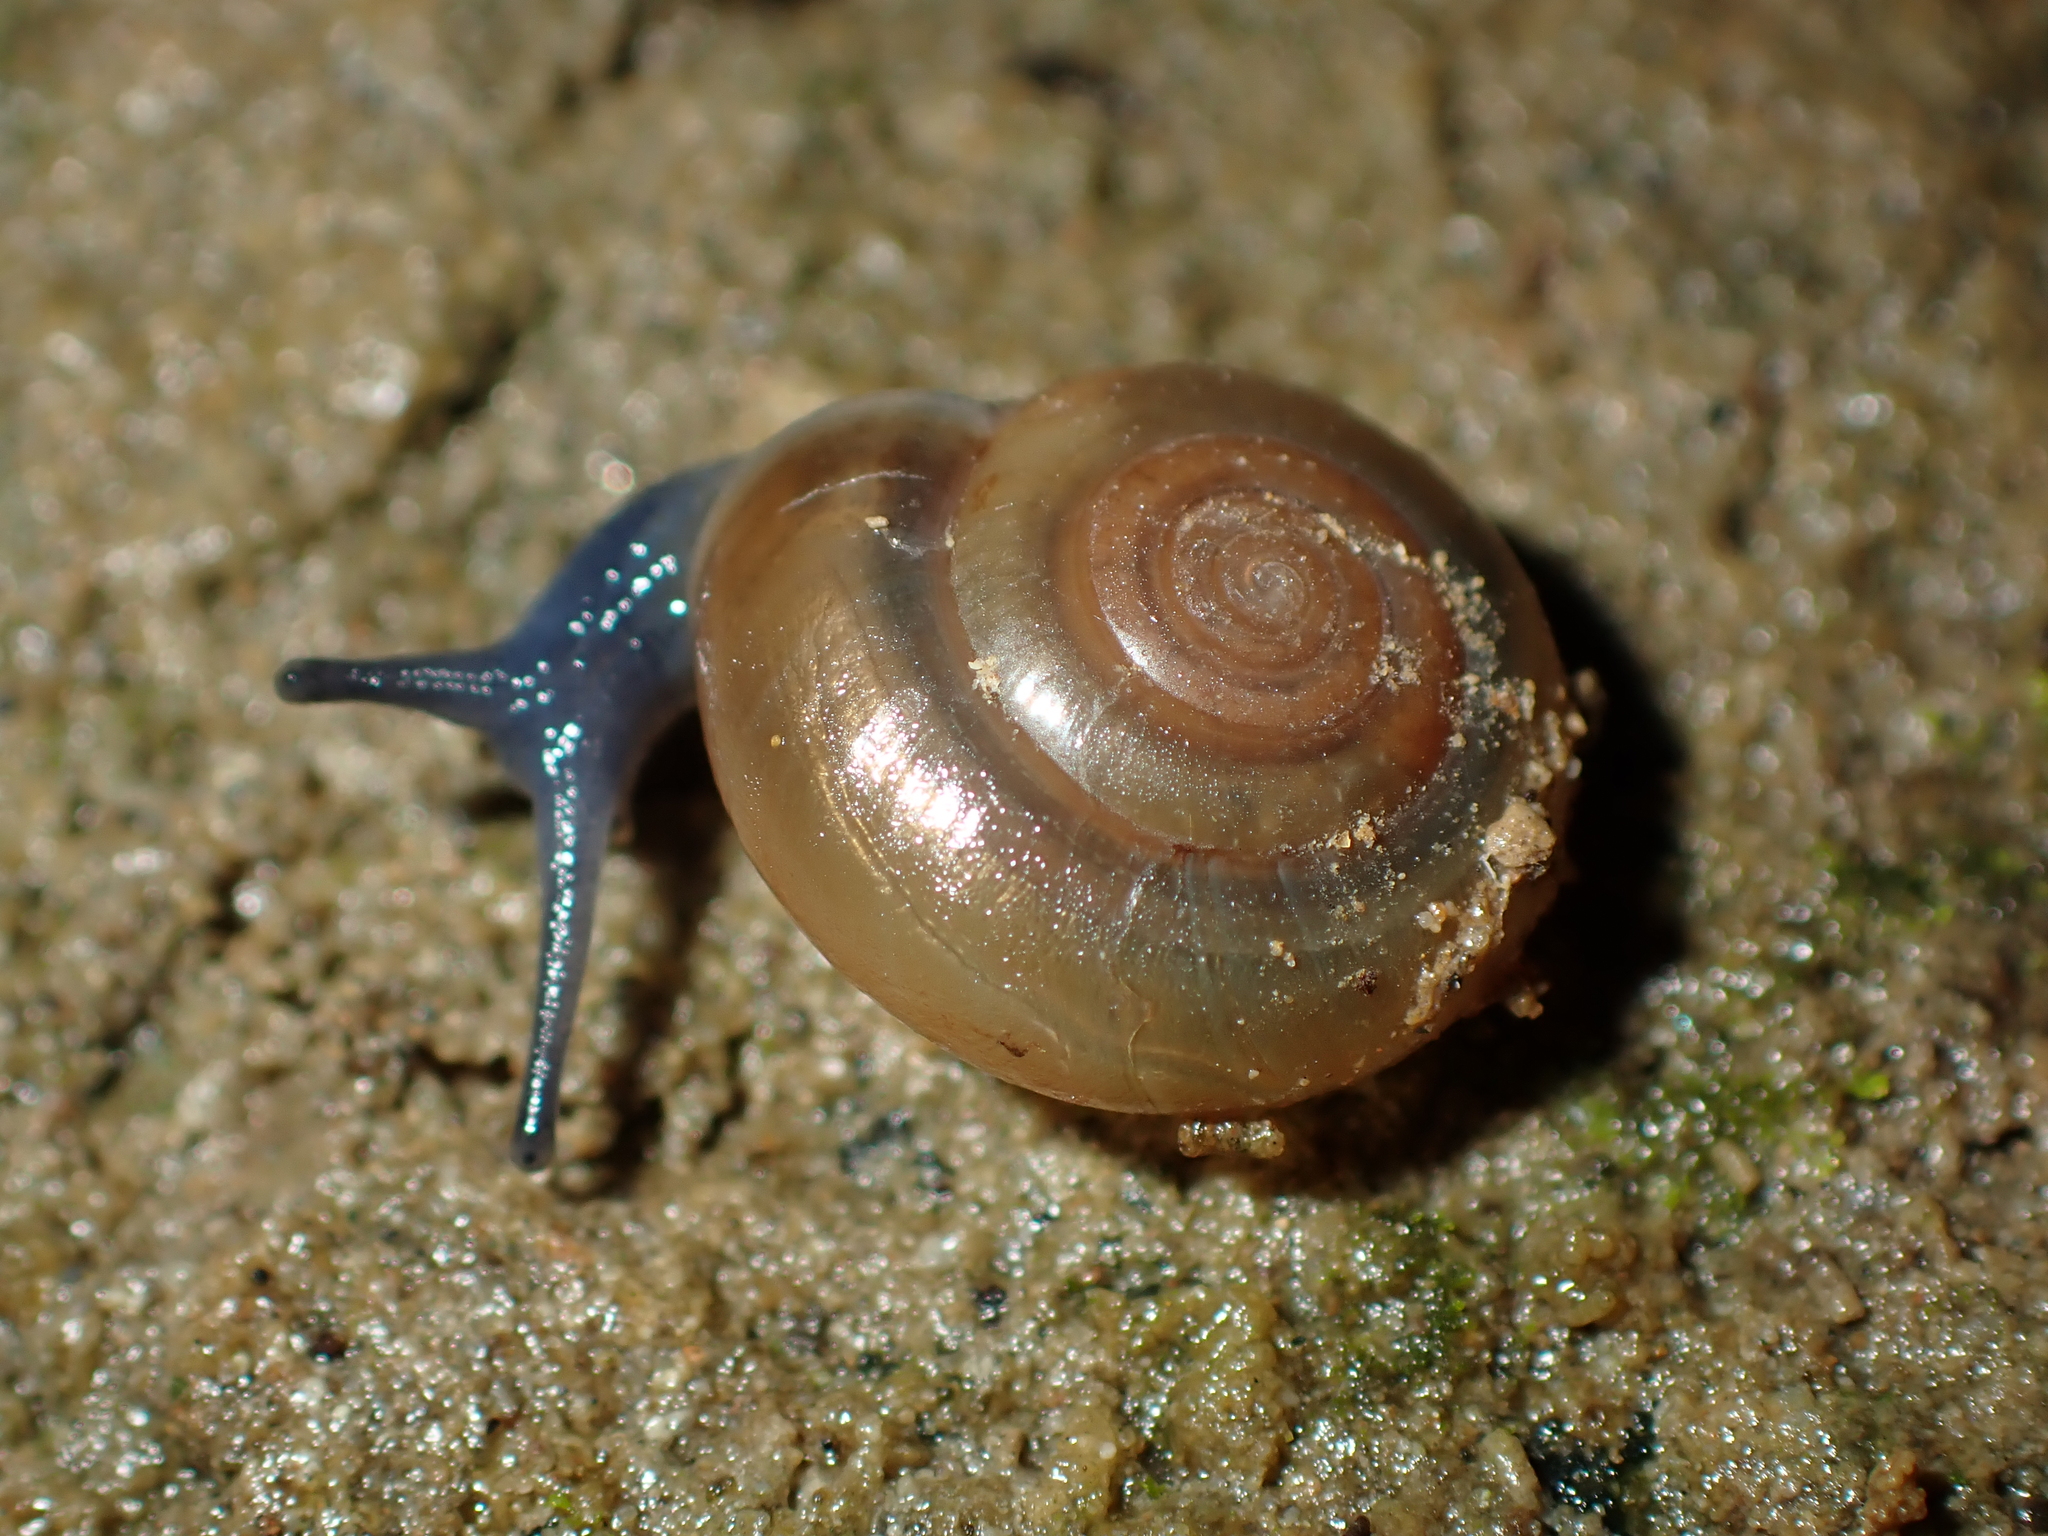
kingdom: Animalia
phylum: Mollusca
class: Gastropoda
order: Stylommatophora
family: Oxychilidae
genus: Oxychilus
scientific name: Oxychilus cellarius
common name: Cellar glass-snail
